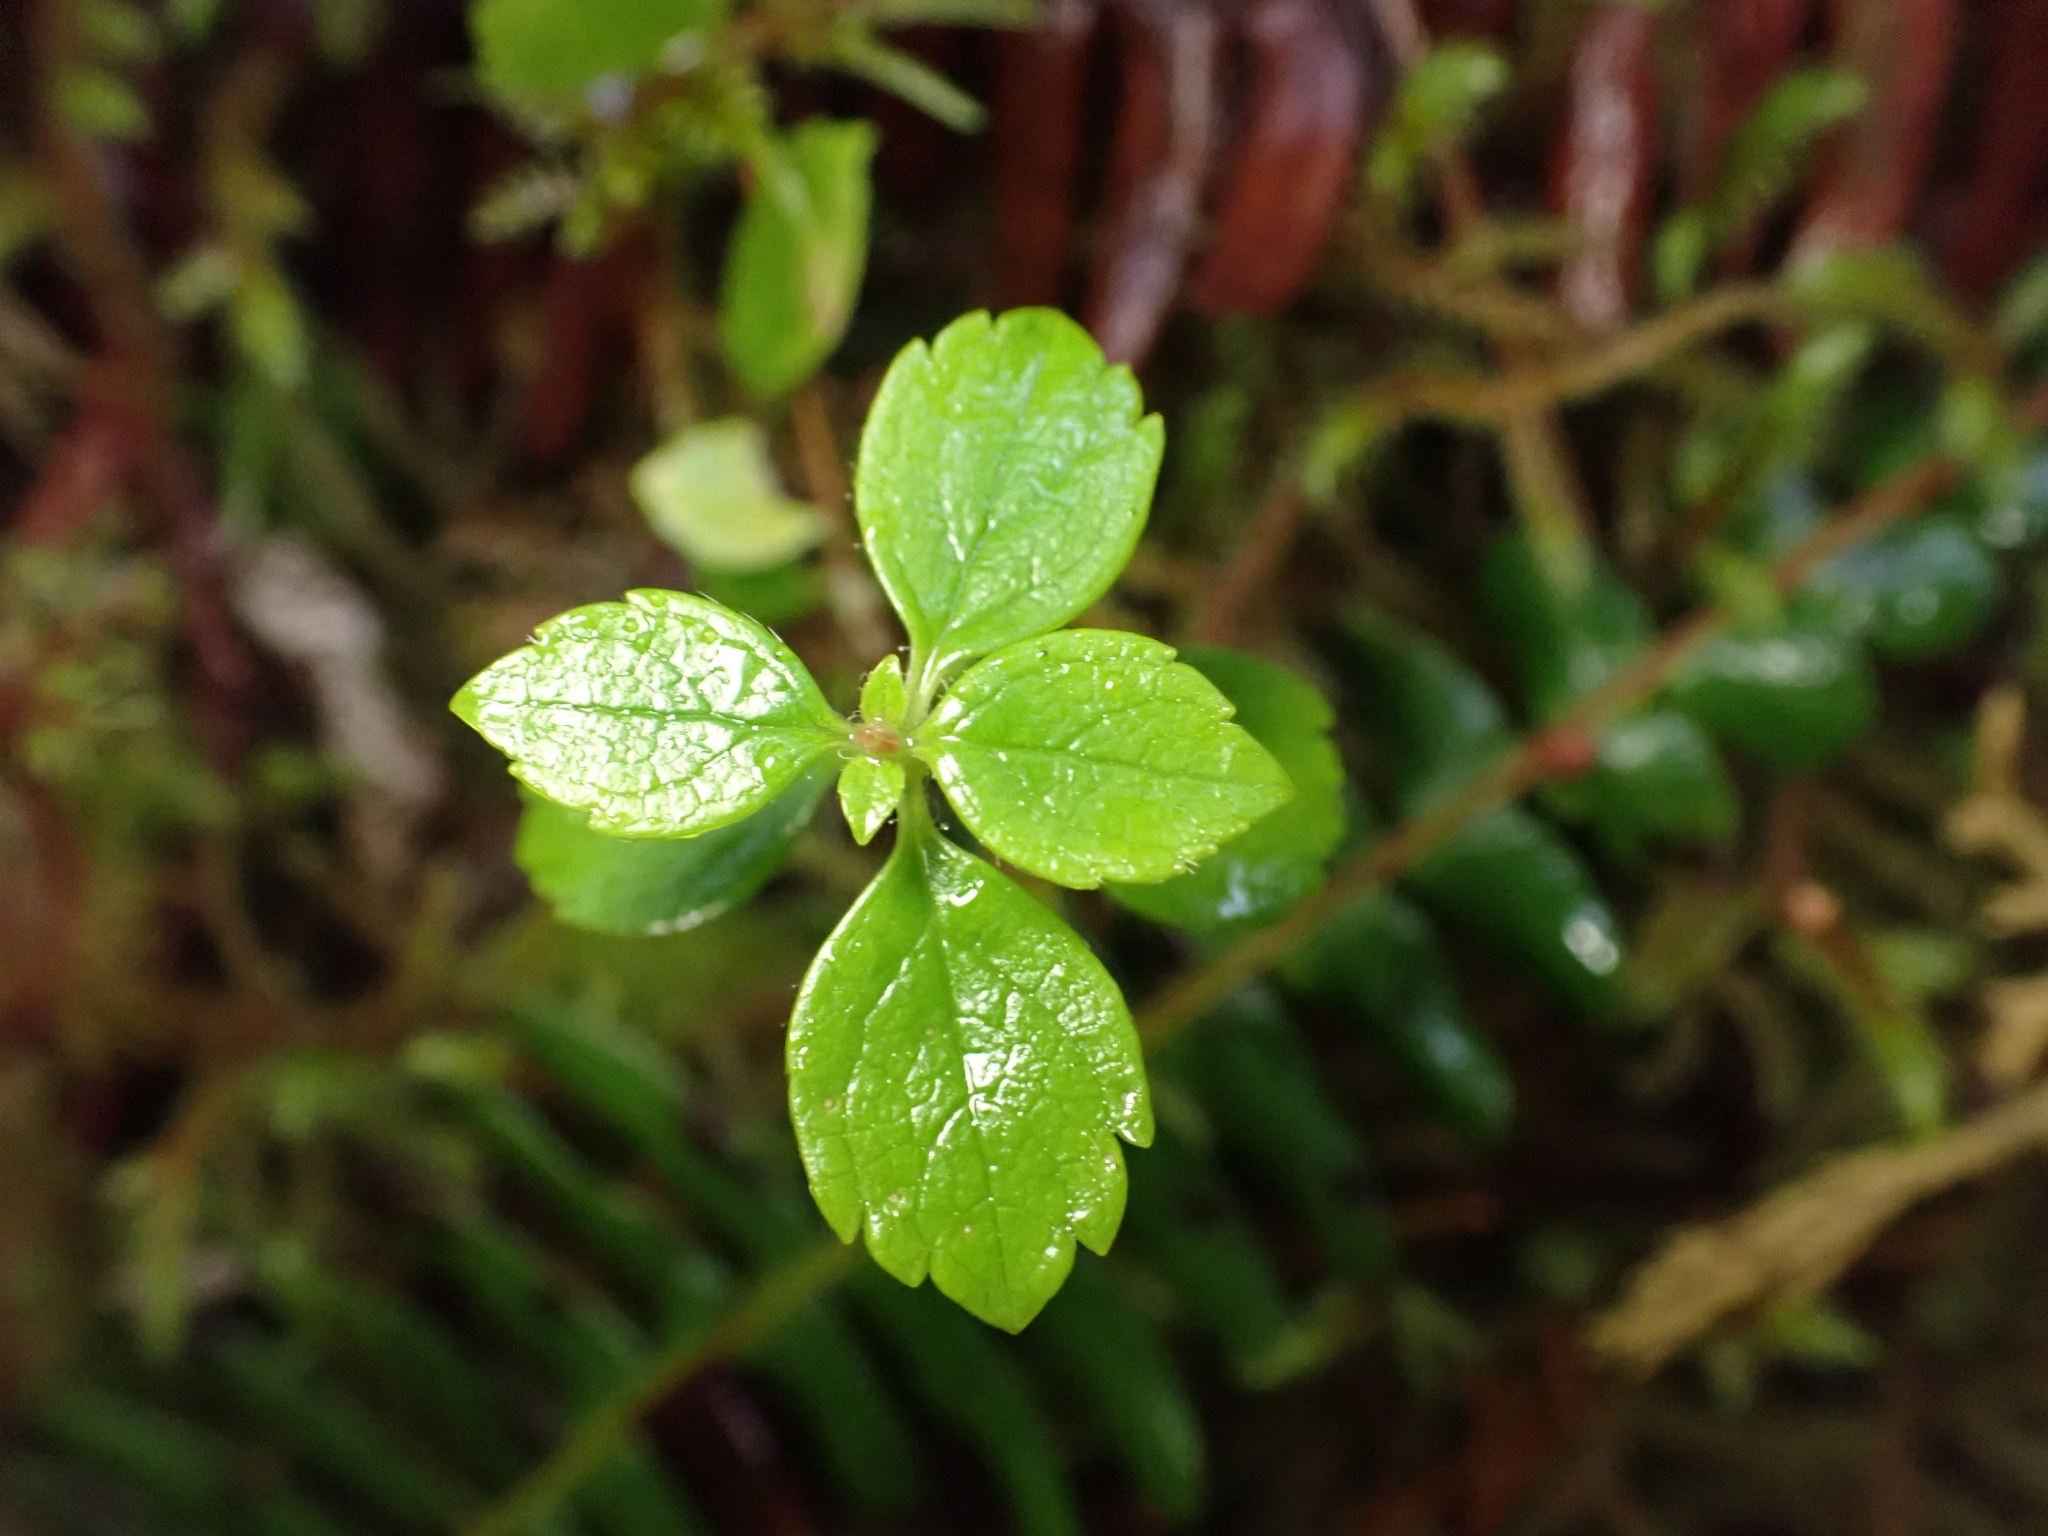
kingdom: Plantae
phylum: Tracheophyta
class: Magnoliopsida
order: Dipsacales
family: Caprifoliaceae
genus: Linnaea
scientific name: Linnaea borealis
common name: Twinflower
